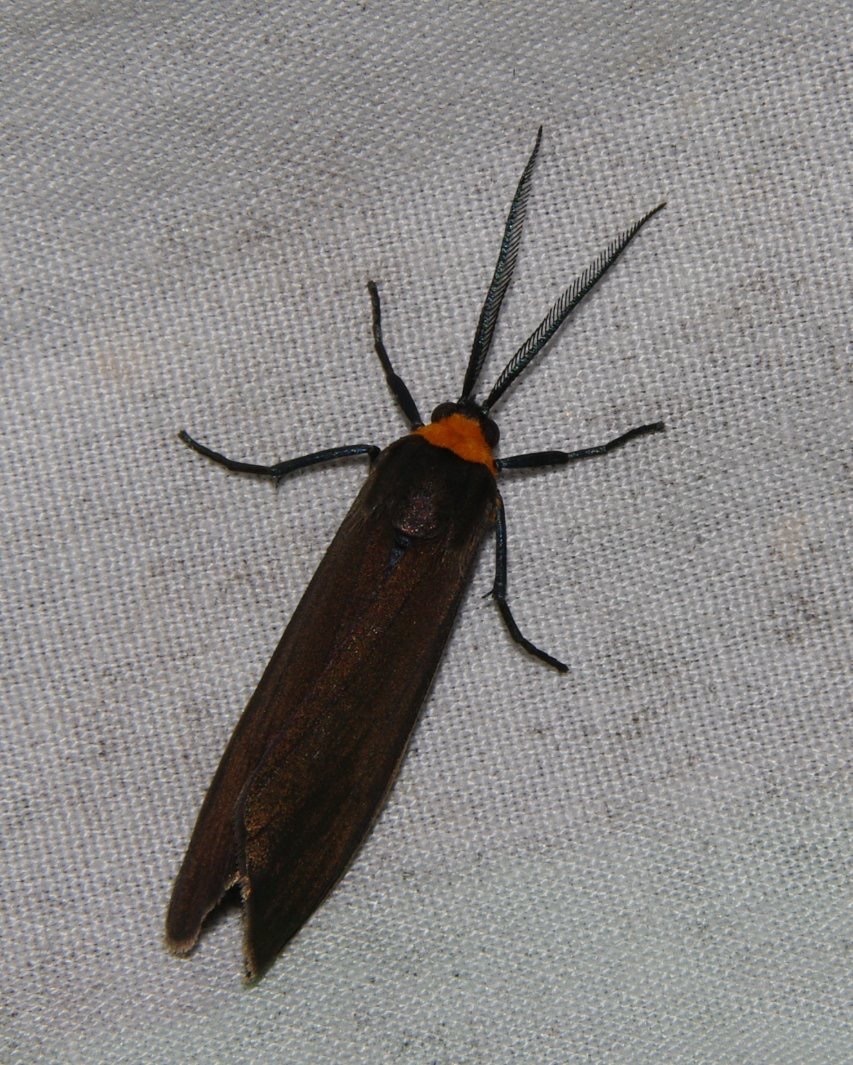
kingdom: Animalia
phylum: Arthropoda
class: Insecta
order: Lepidoptera
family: Erebidae
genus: Cisseps
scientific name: Cisseps fulvicollis
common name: Yellow-collared scape moth
